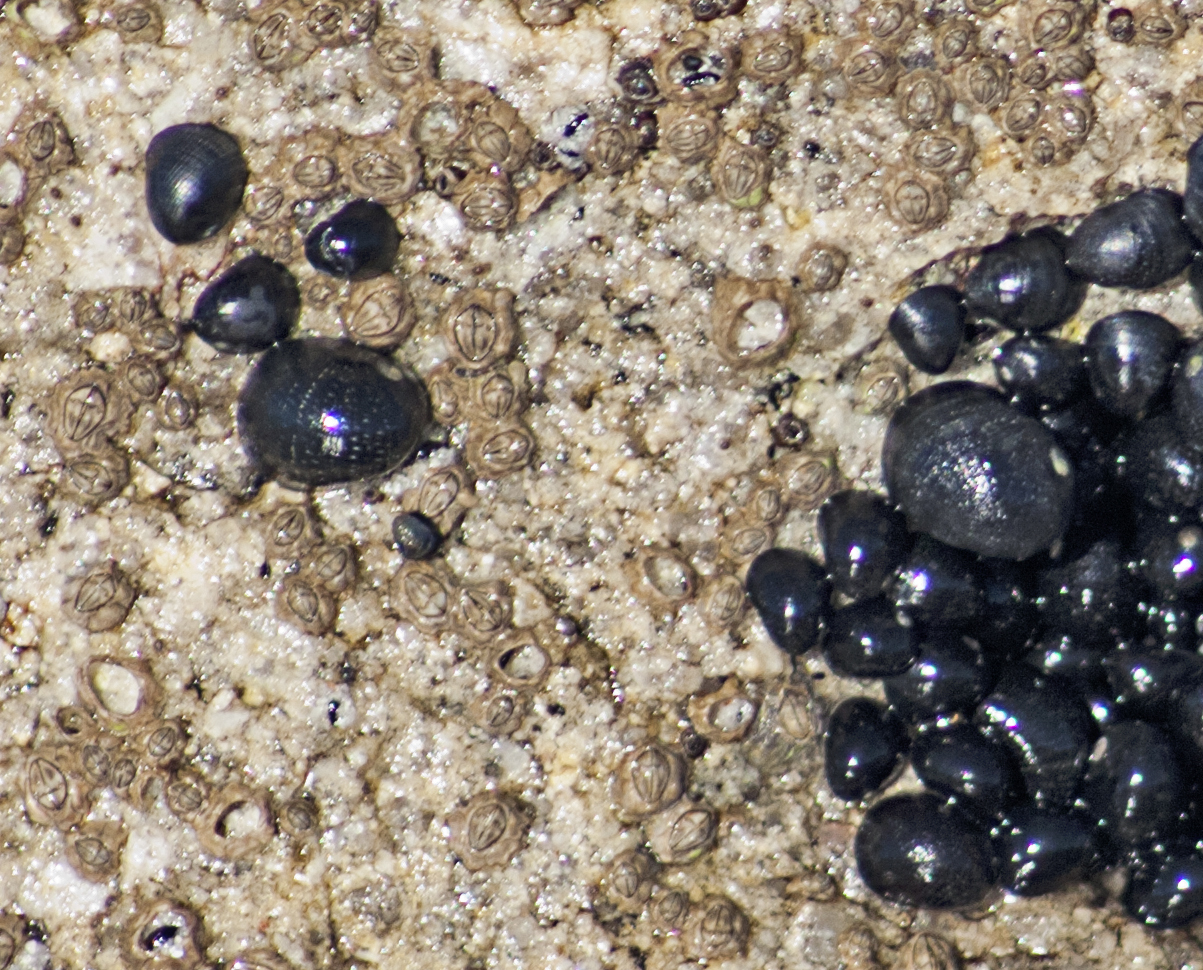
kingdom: Animalia
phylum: Mollusca
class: Gastropoda
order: Cycloneritida
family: Neritidae
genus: Nerita
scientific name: Nerita atramentosa
